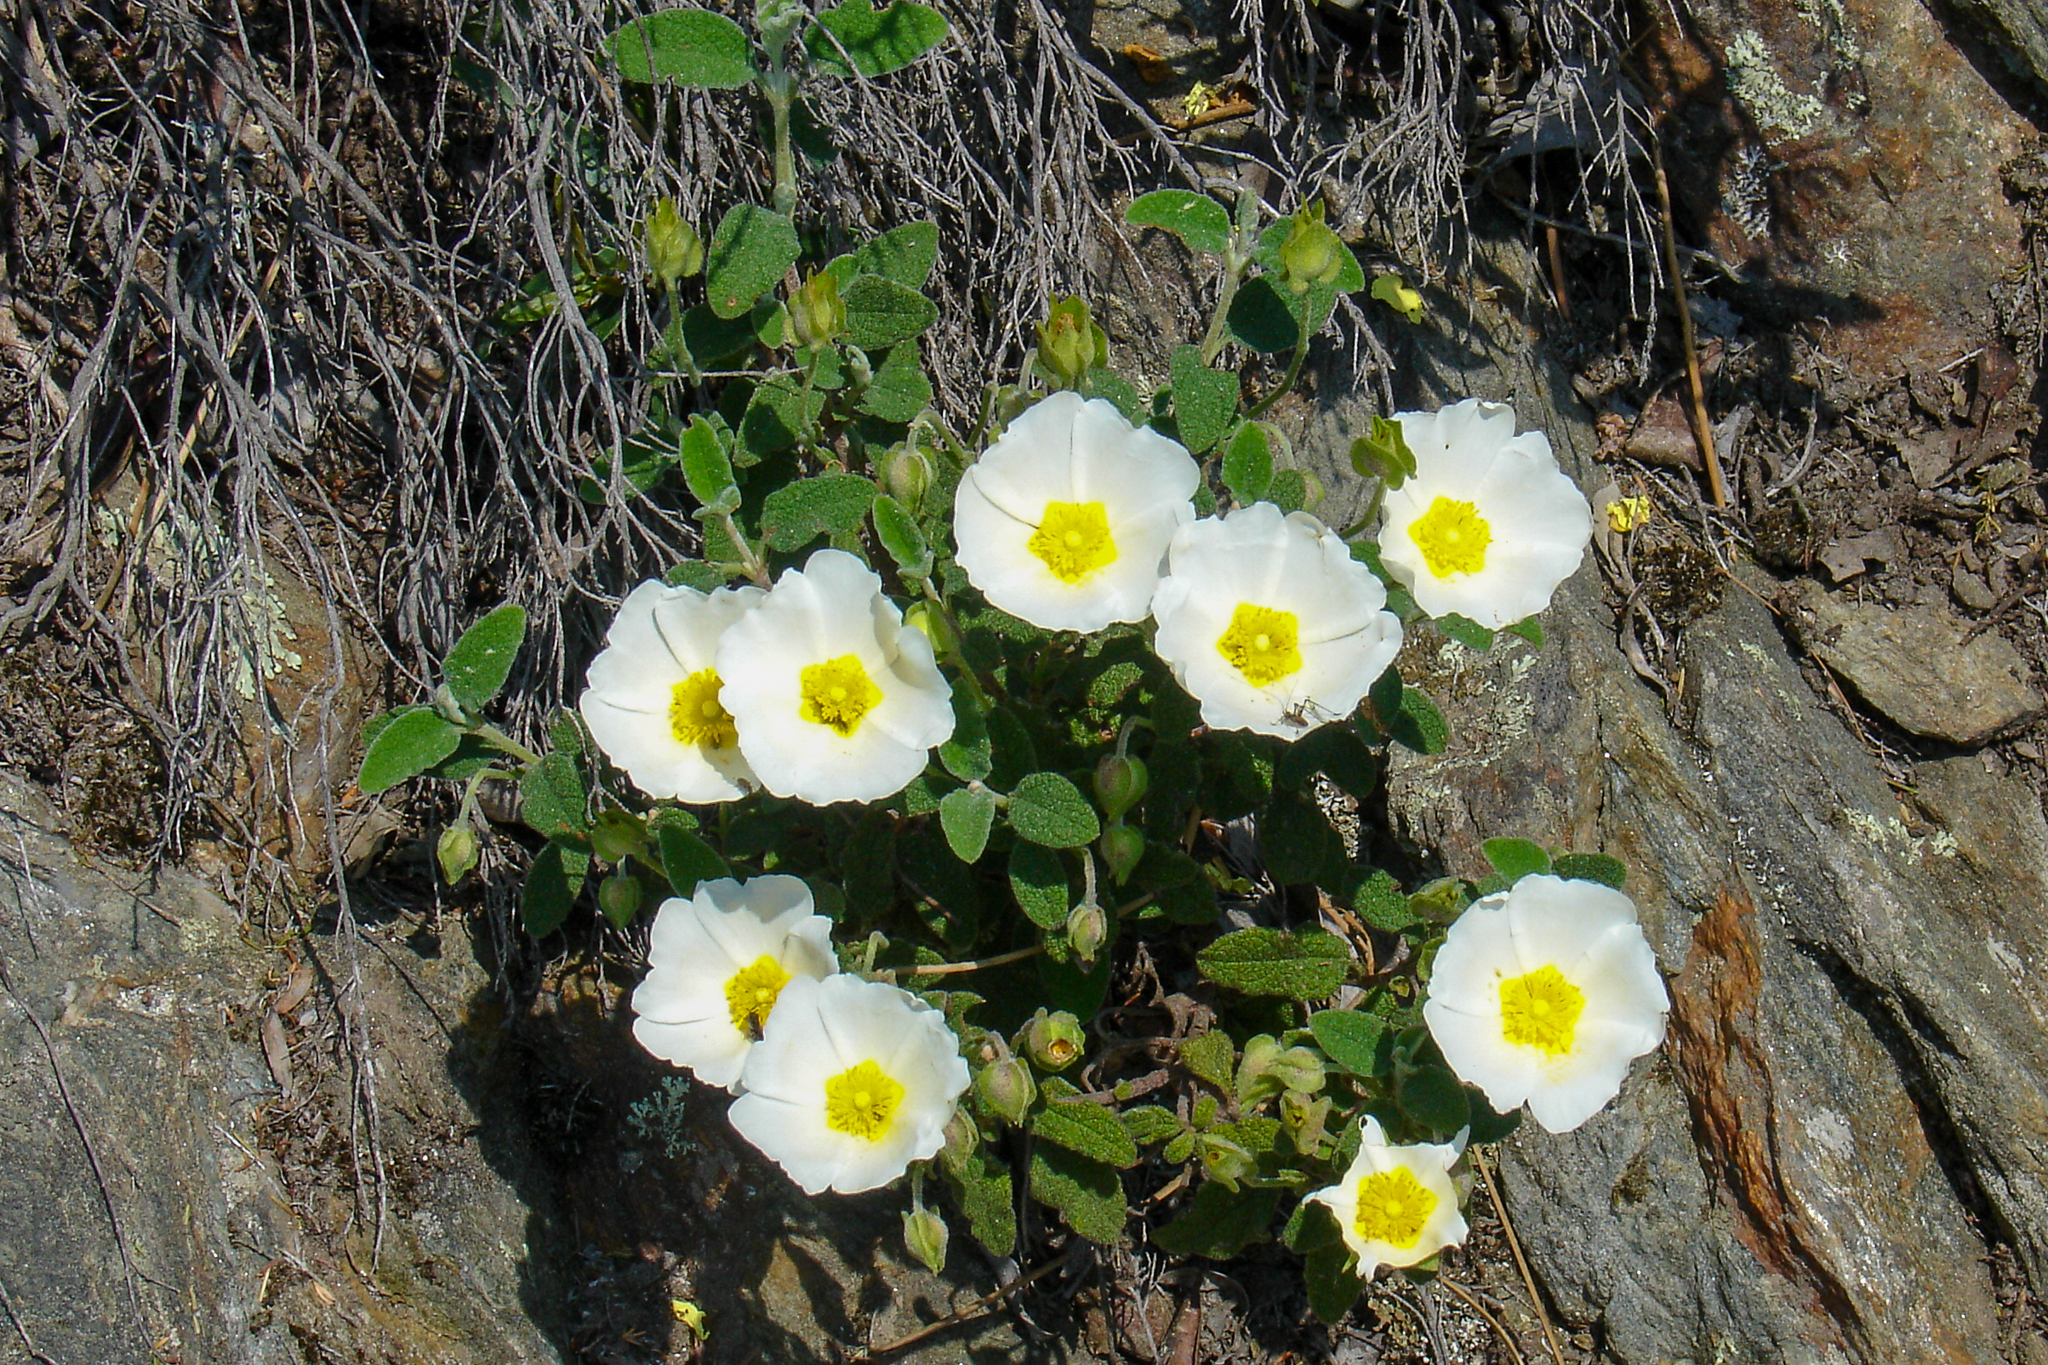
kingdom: Plantae
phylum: Tracheophyta
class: Magnoliopsida
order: Malvales
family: Cistaceae
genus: Cistus
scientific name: Cistus salviifolius
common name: Salvia cistus
